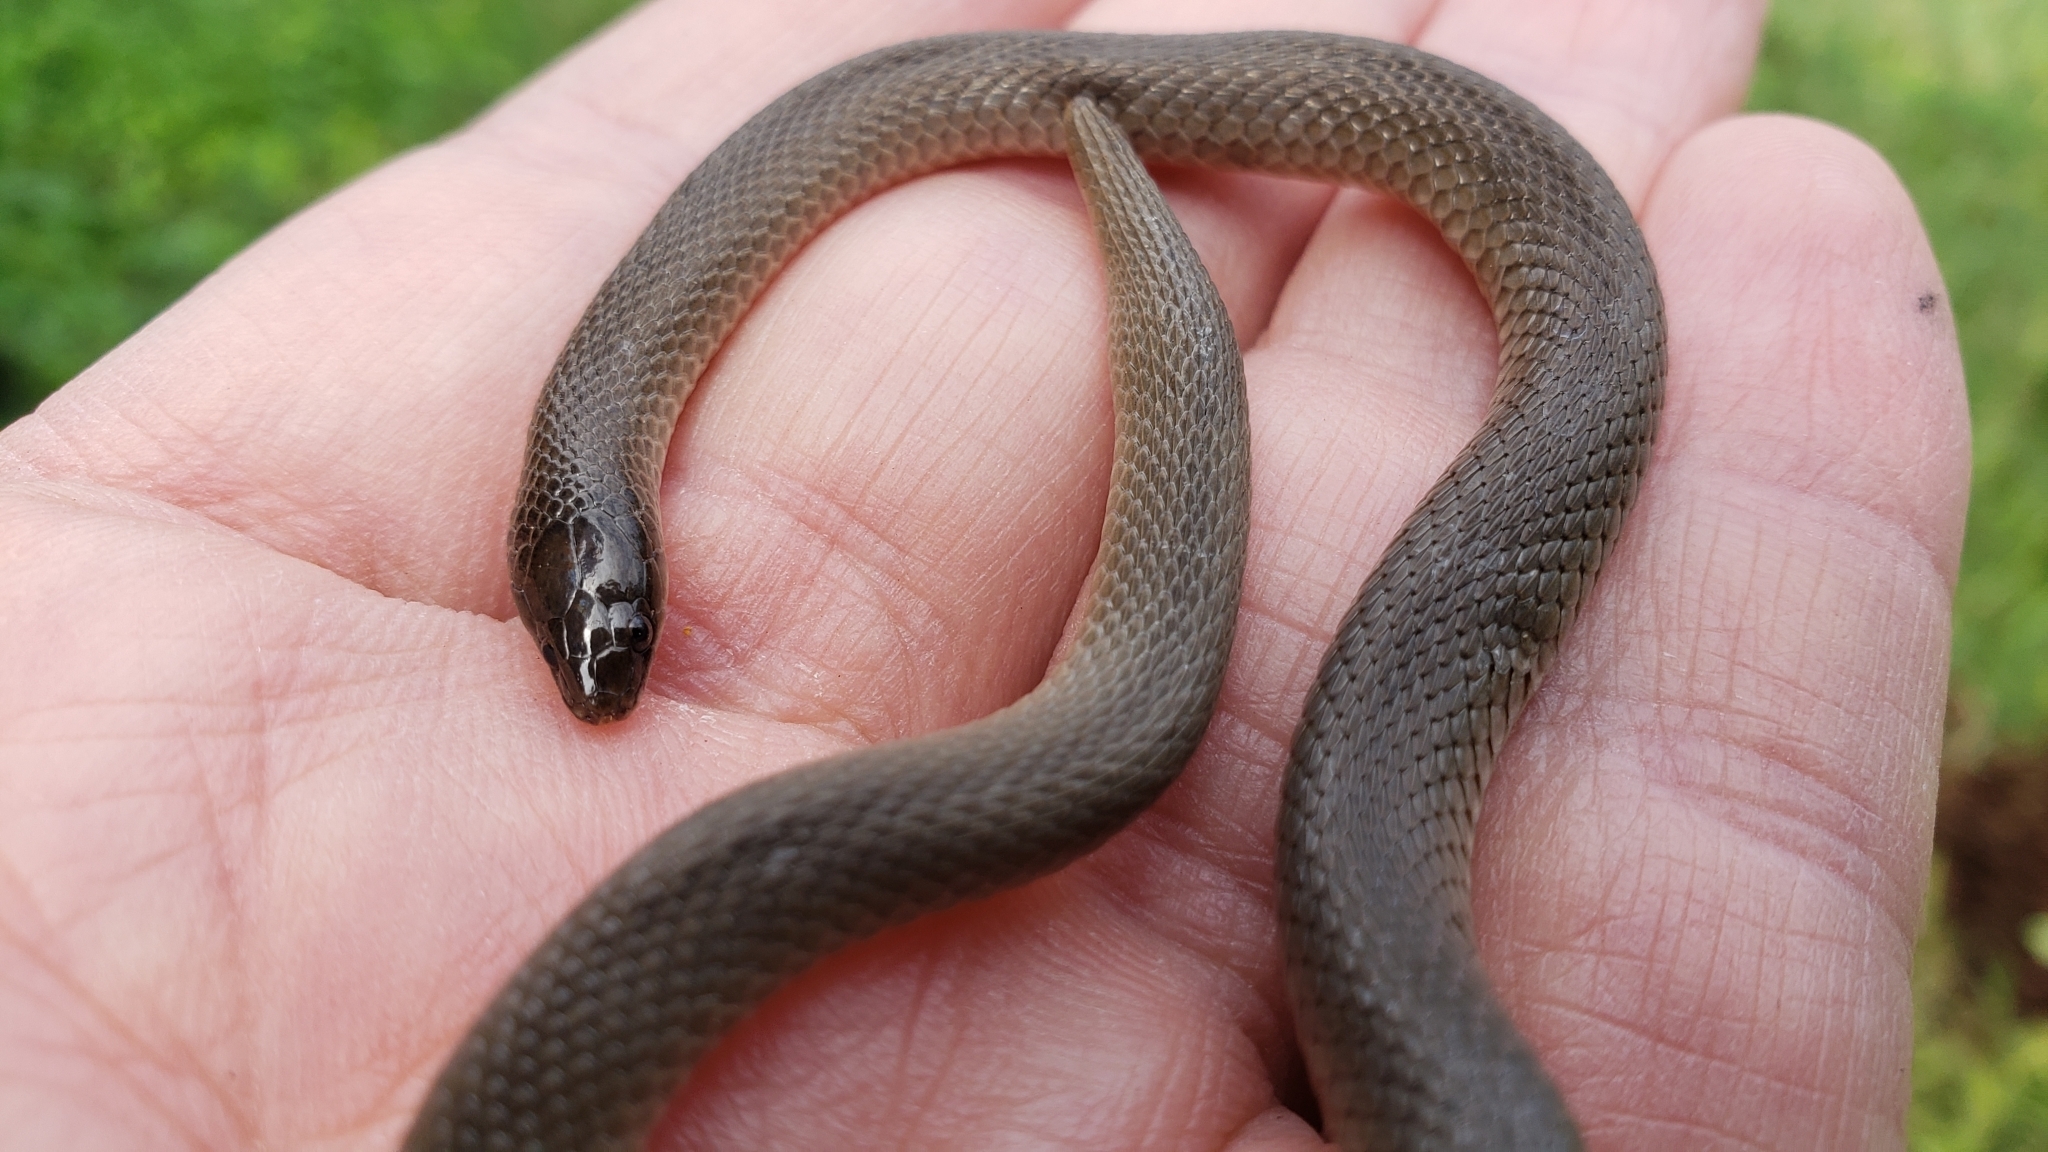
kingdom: Animalia
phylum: Chordata
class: Squamata
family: Colubridae
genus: Haldea
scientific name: Haldea striatula
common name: Rough earth snake
